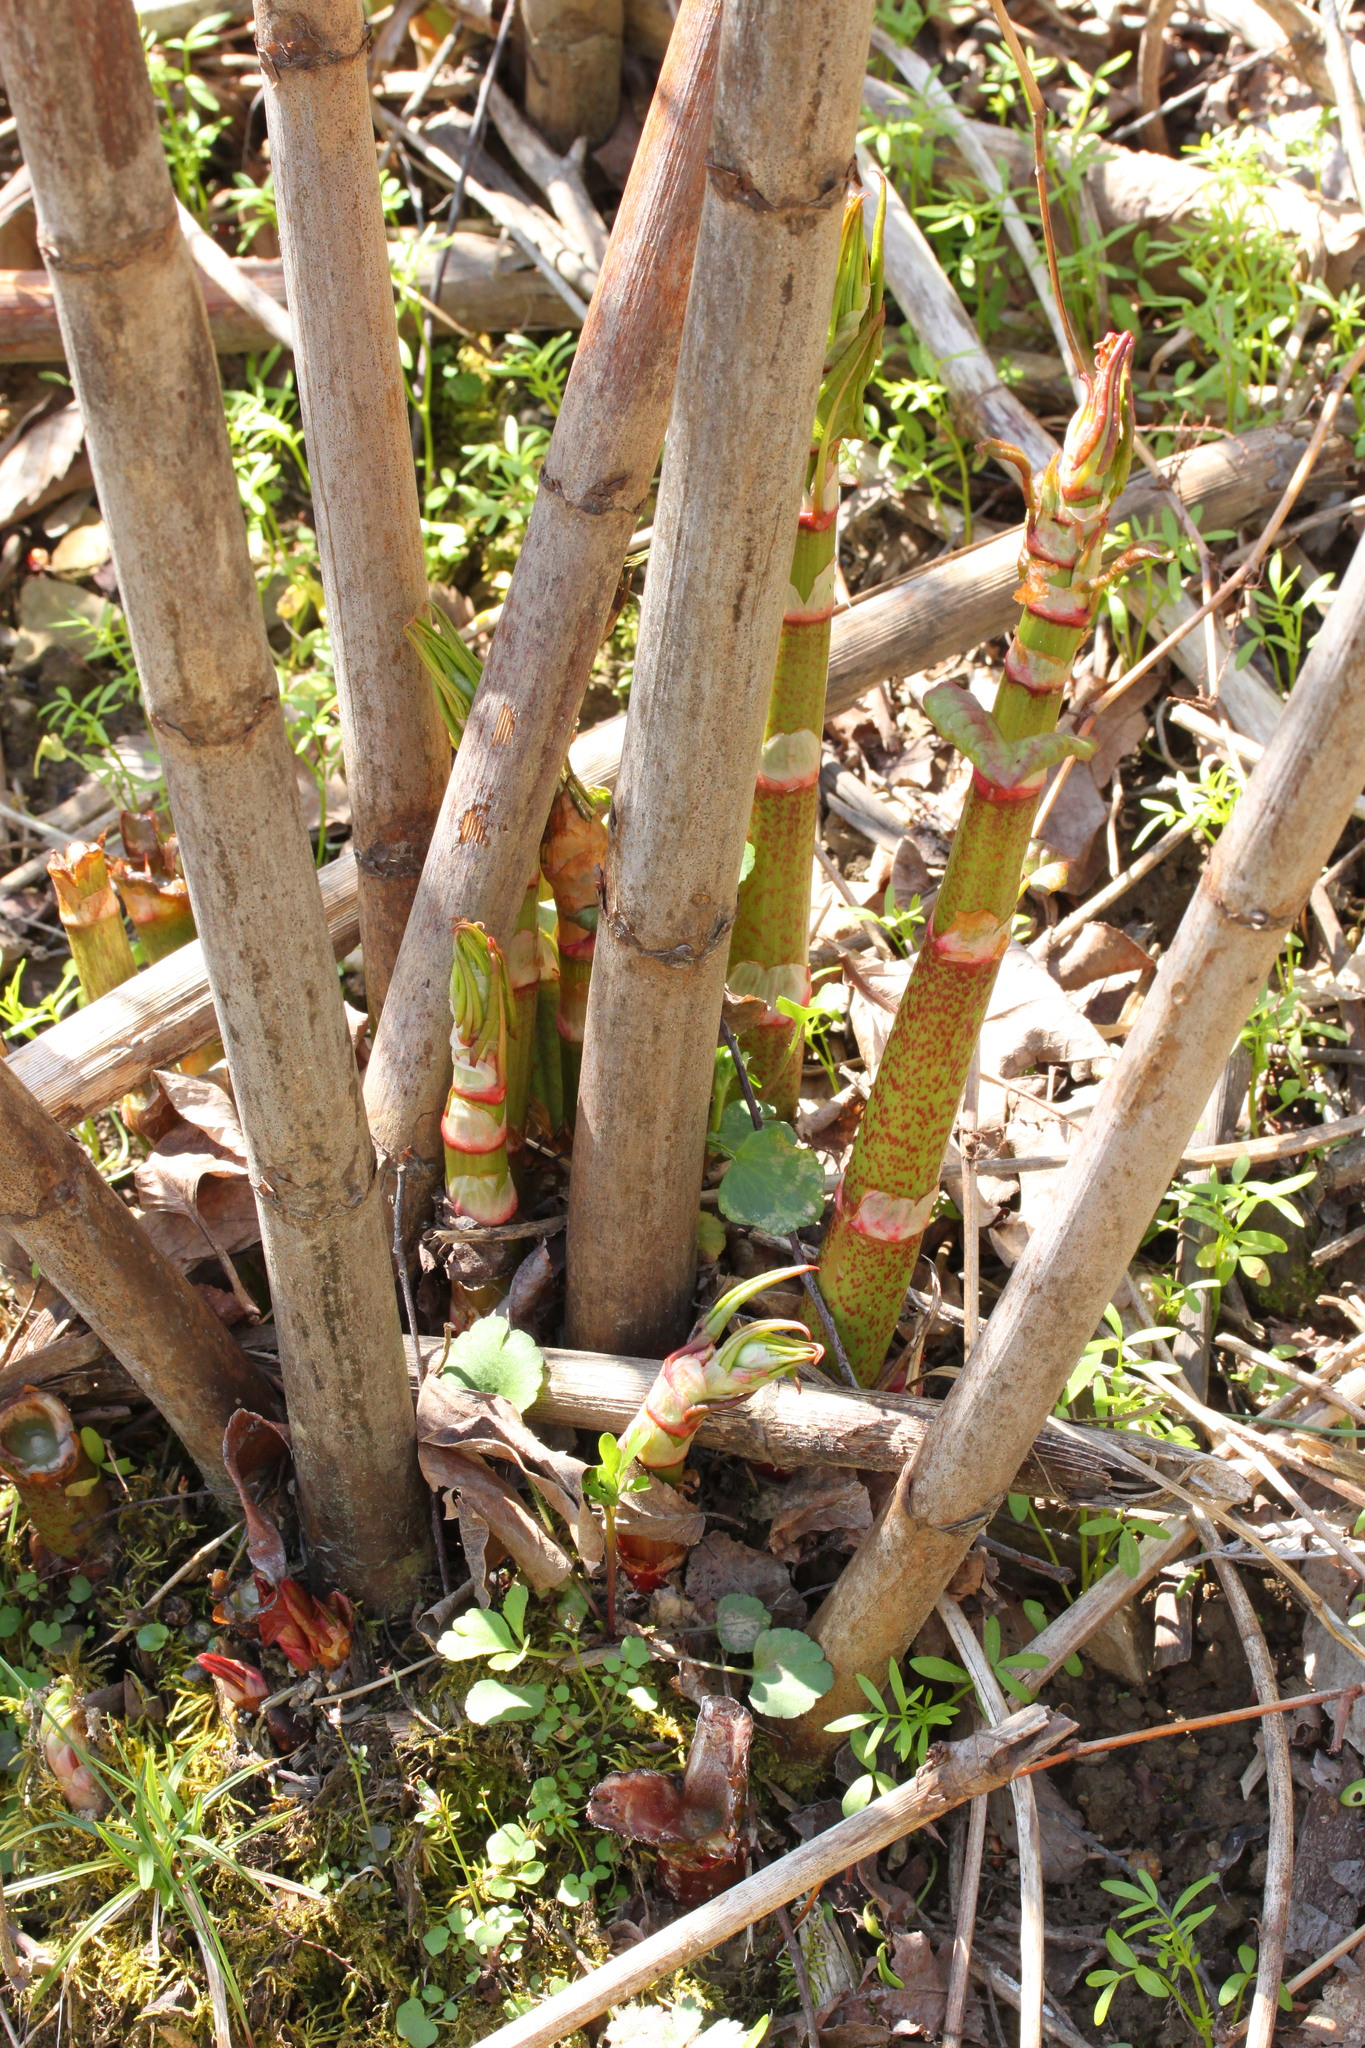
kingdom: Plantae
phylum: Tracheophyta
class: Magnoliopsida
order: Caryophyllales
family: Polygonaceae
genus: Reynoutria
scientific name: Reynoutria japonica
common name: Japanese knotweed
